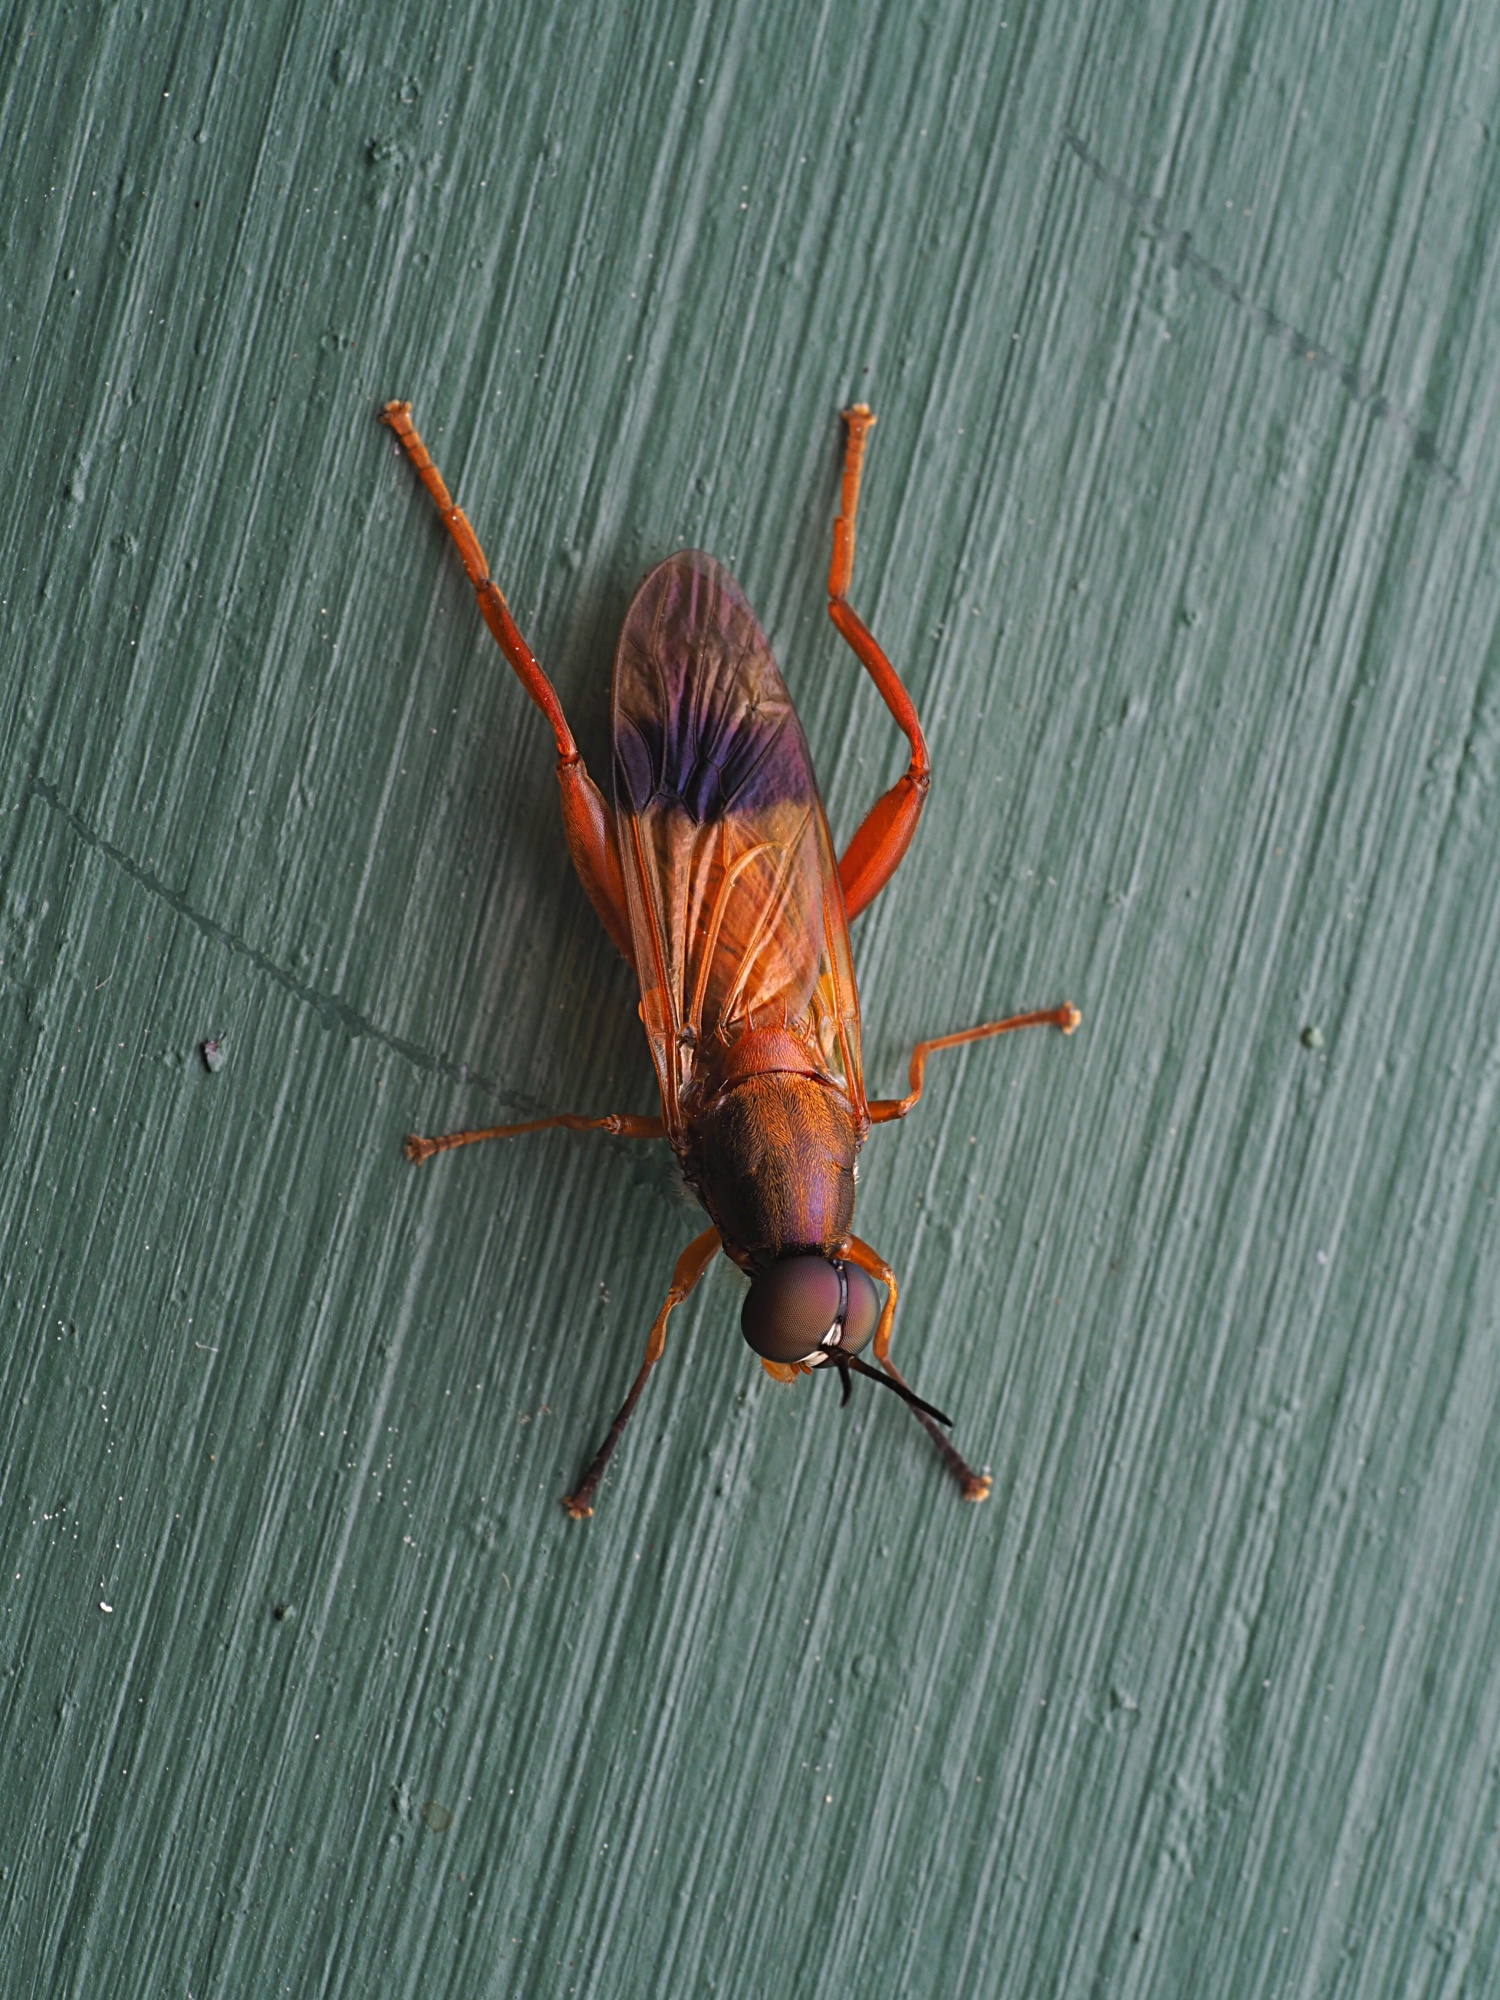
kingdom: Animalia
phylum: Arthropoda
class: Insecta
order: Diptera
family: Stratiomyidae
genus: Benhamyia
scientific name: Benhamyia apicalis
